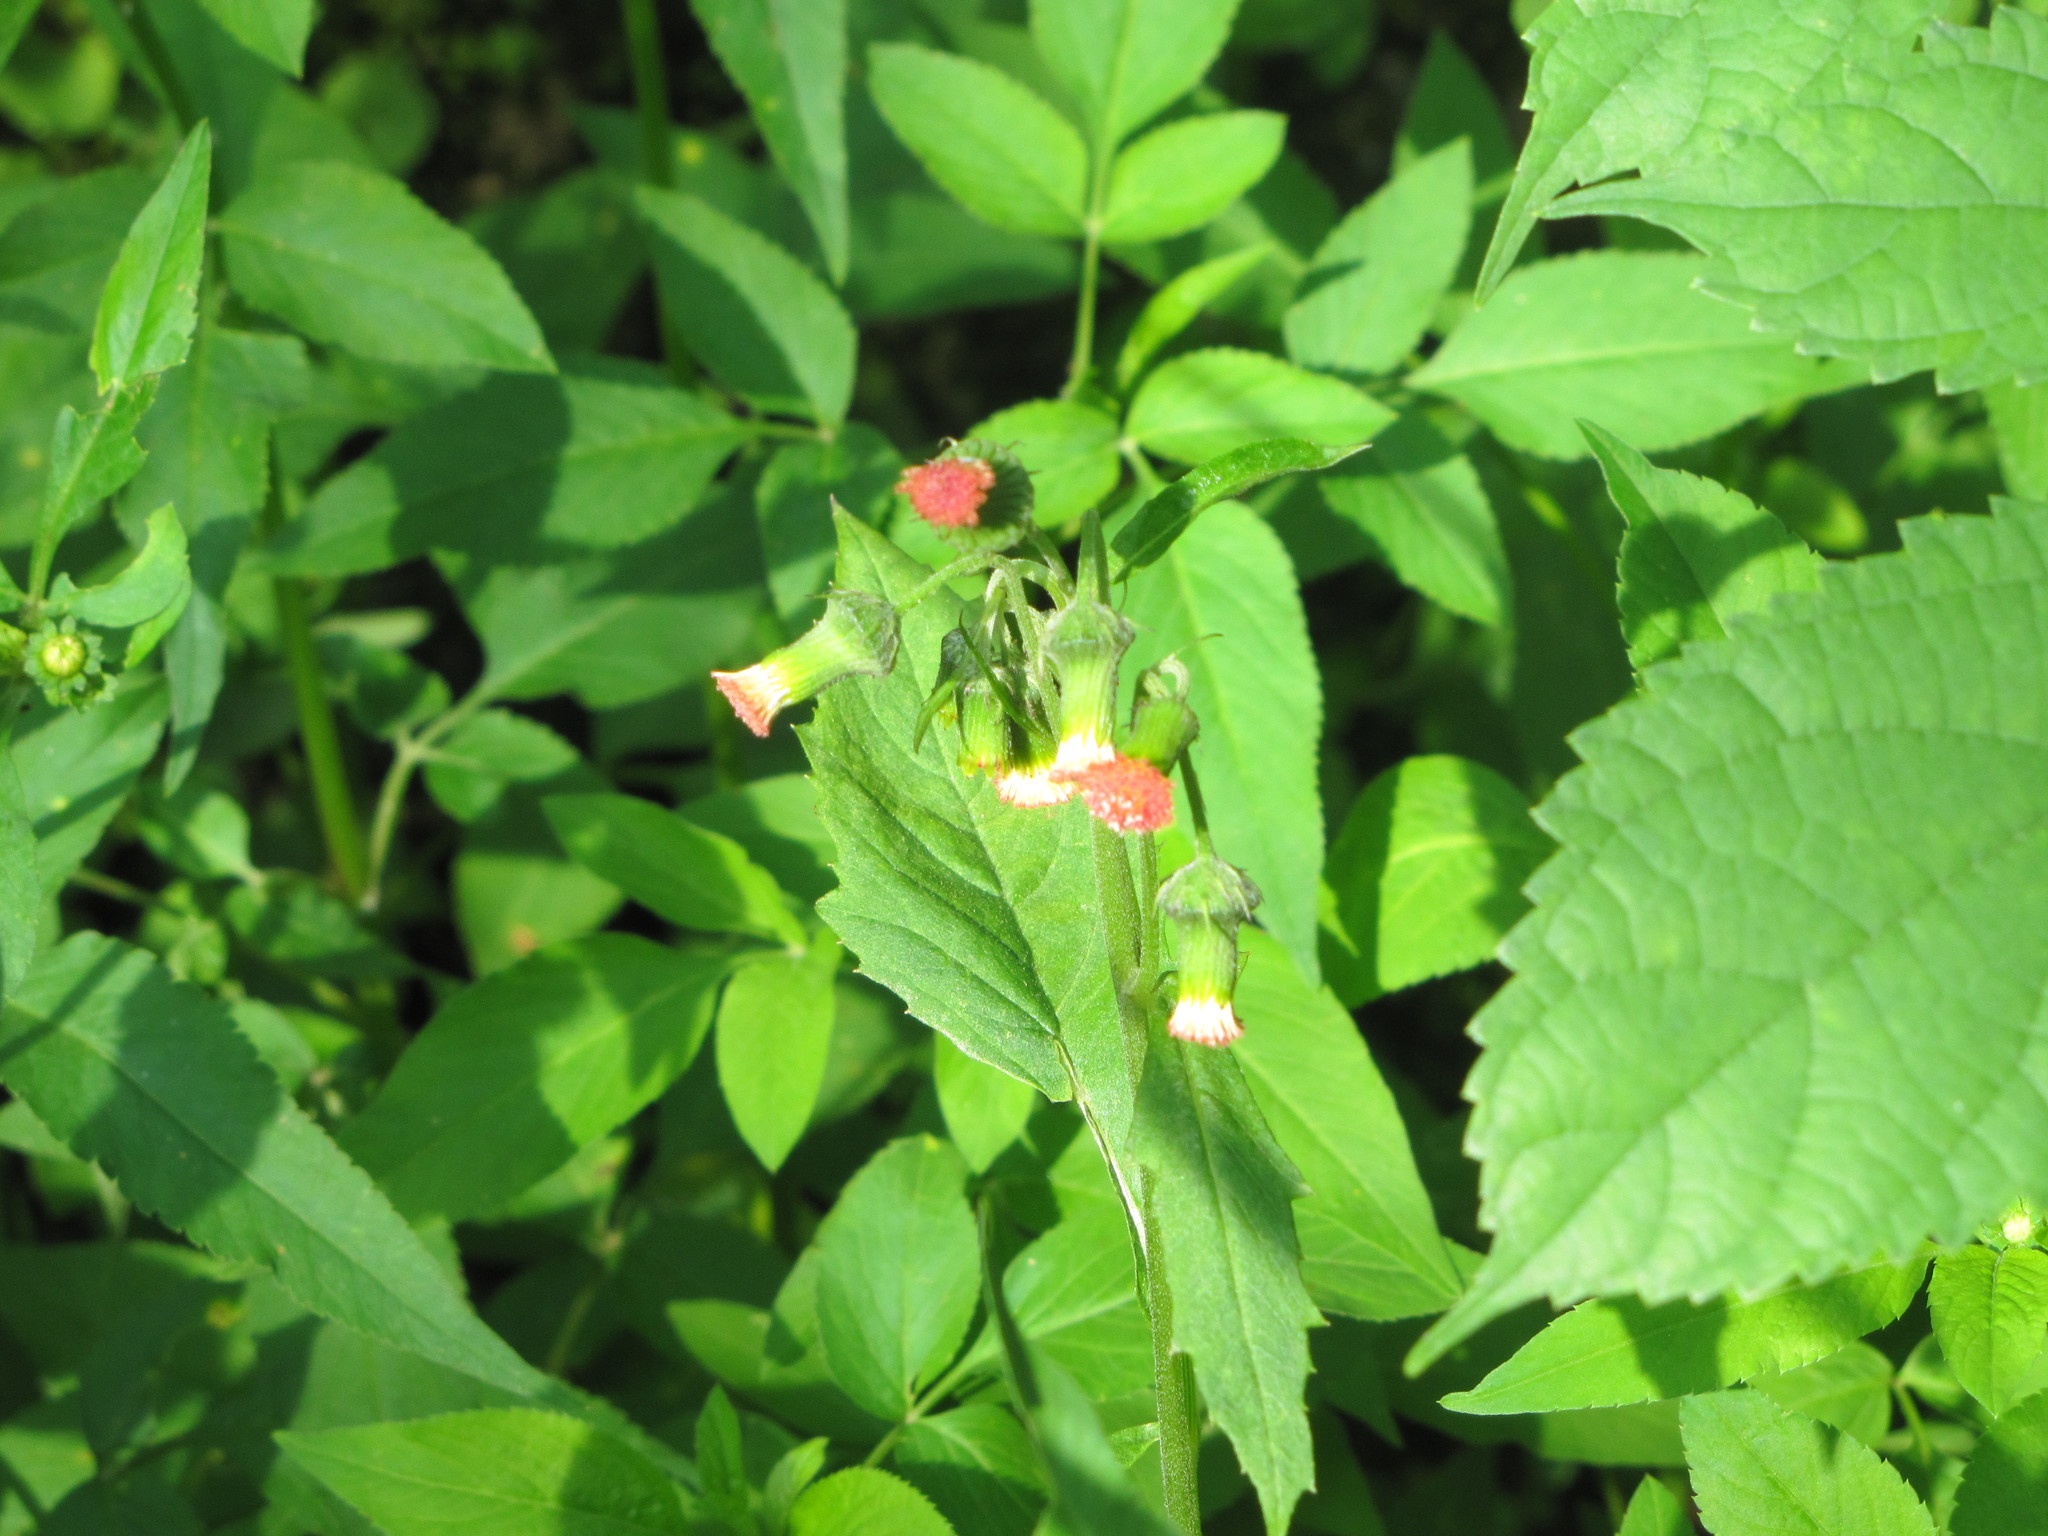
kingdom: Plantae
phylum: Tracheophyta
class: Magnoliopsida
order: Asterales
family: Asteraceae
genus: Crassocephalum
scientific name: Crassocephalum crepidioides
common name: Redflower ragleaf
